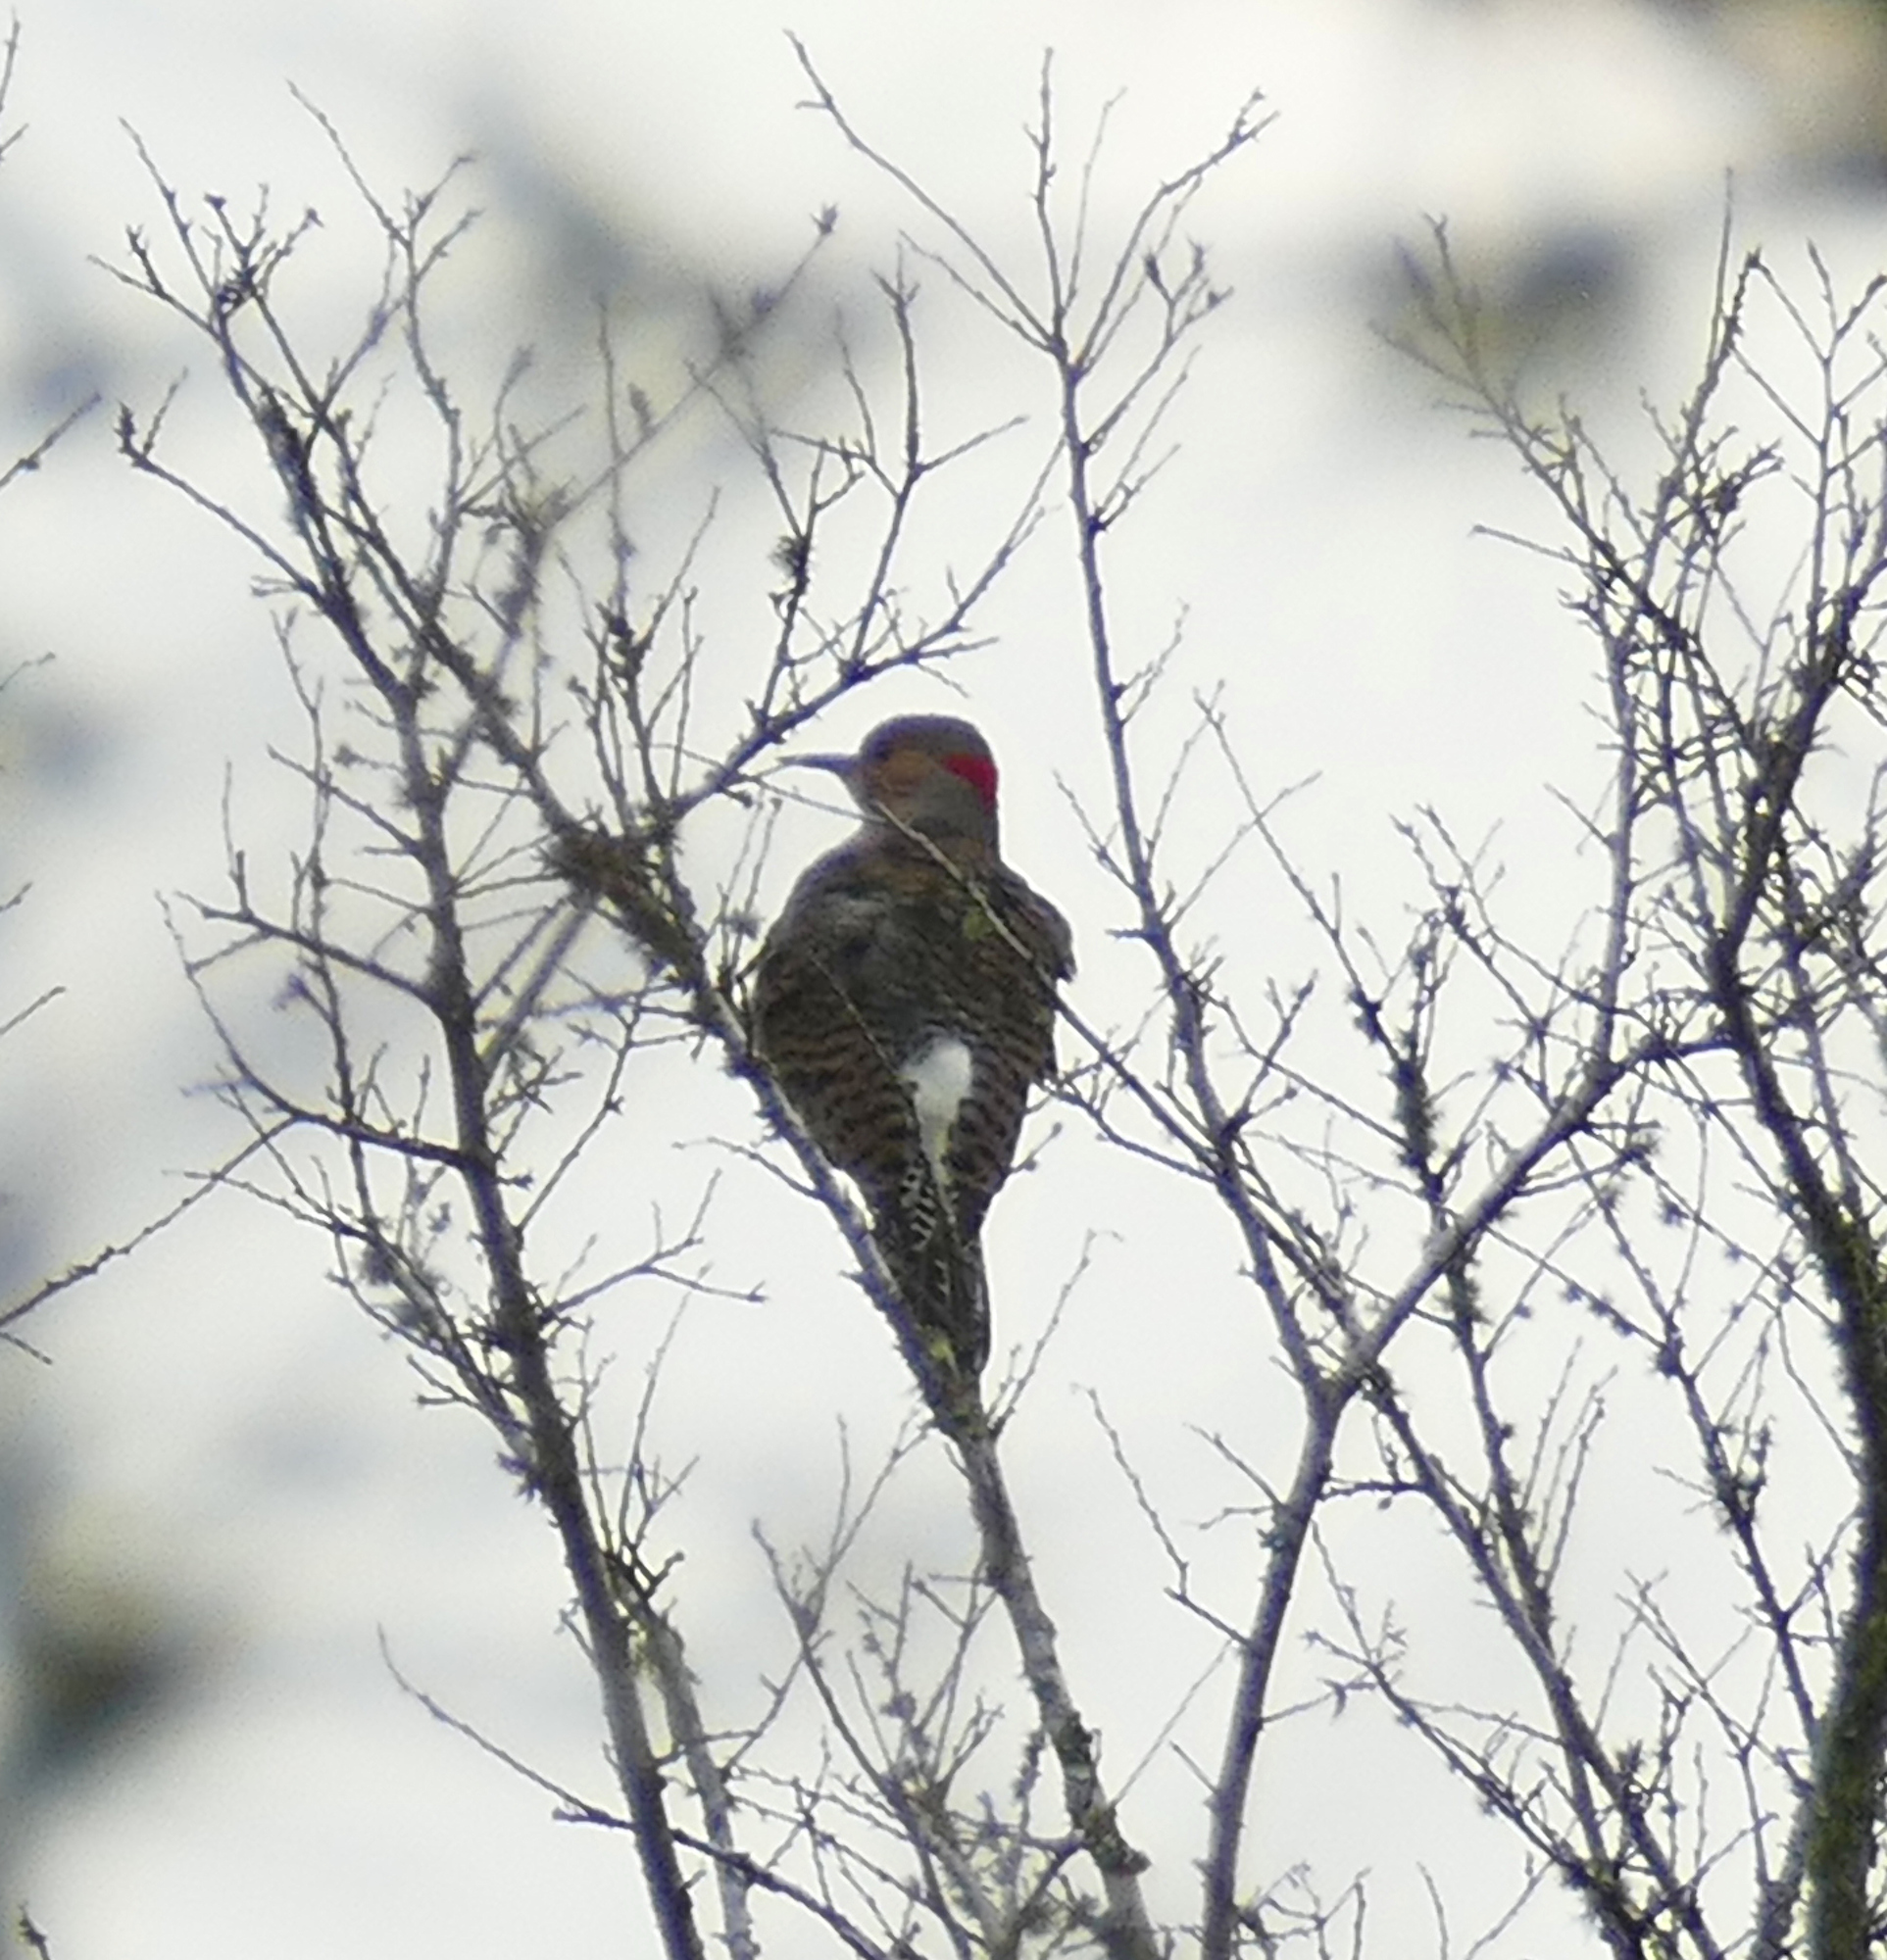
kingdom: Animalia
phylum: Chordata
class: Aves
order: Piciformes
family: Picidae
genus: Colaptes
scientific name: Colaptes auratus
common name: Northern flicker
